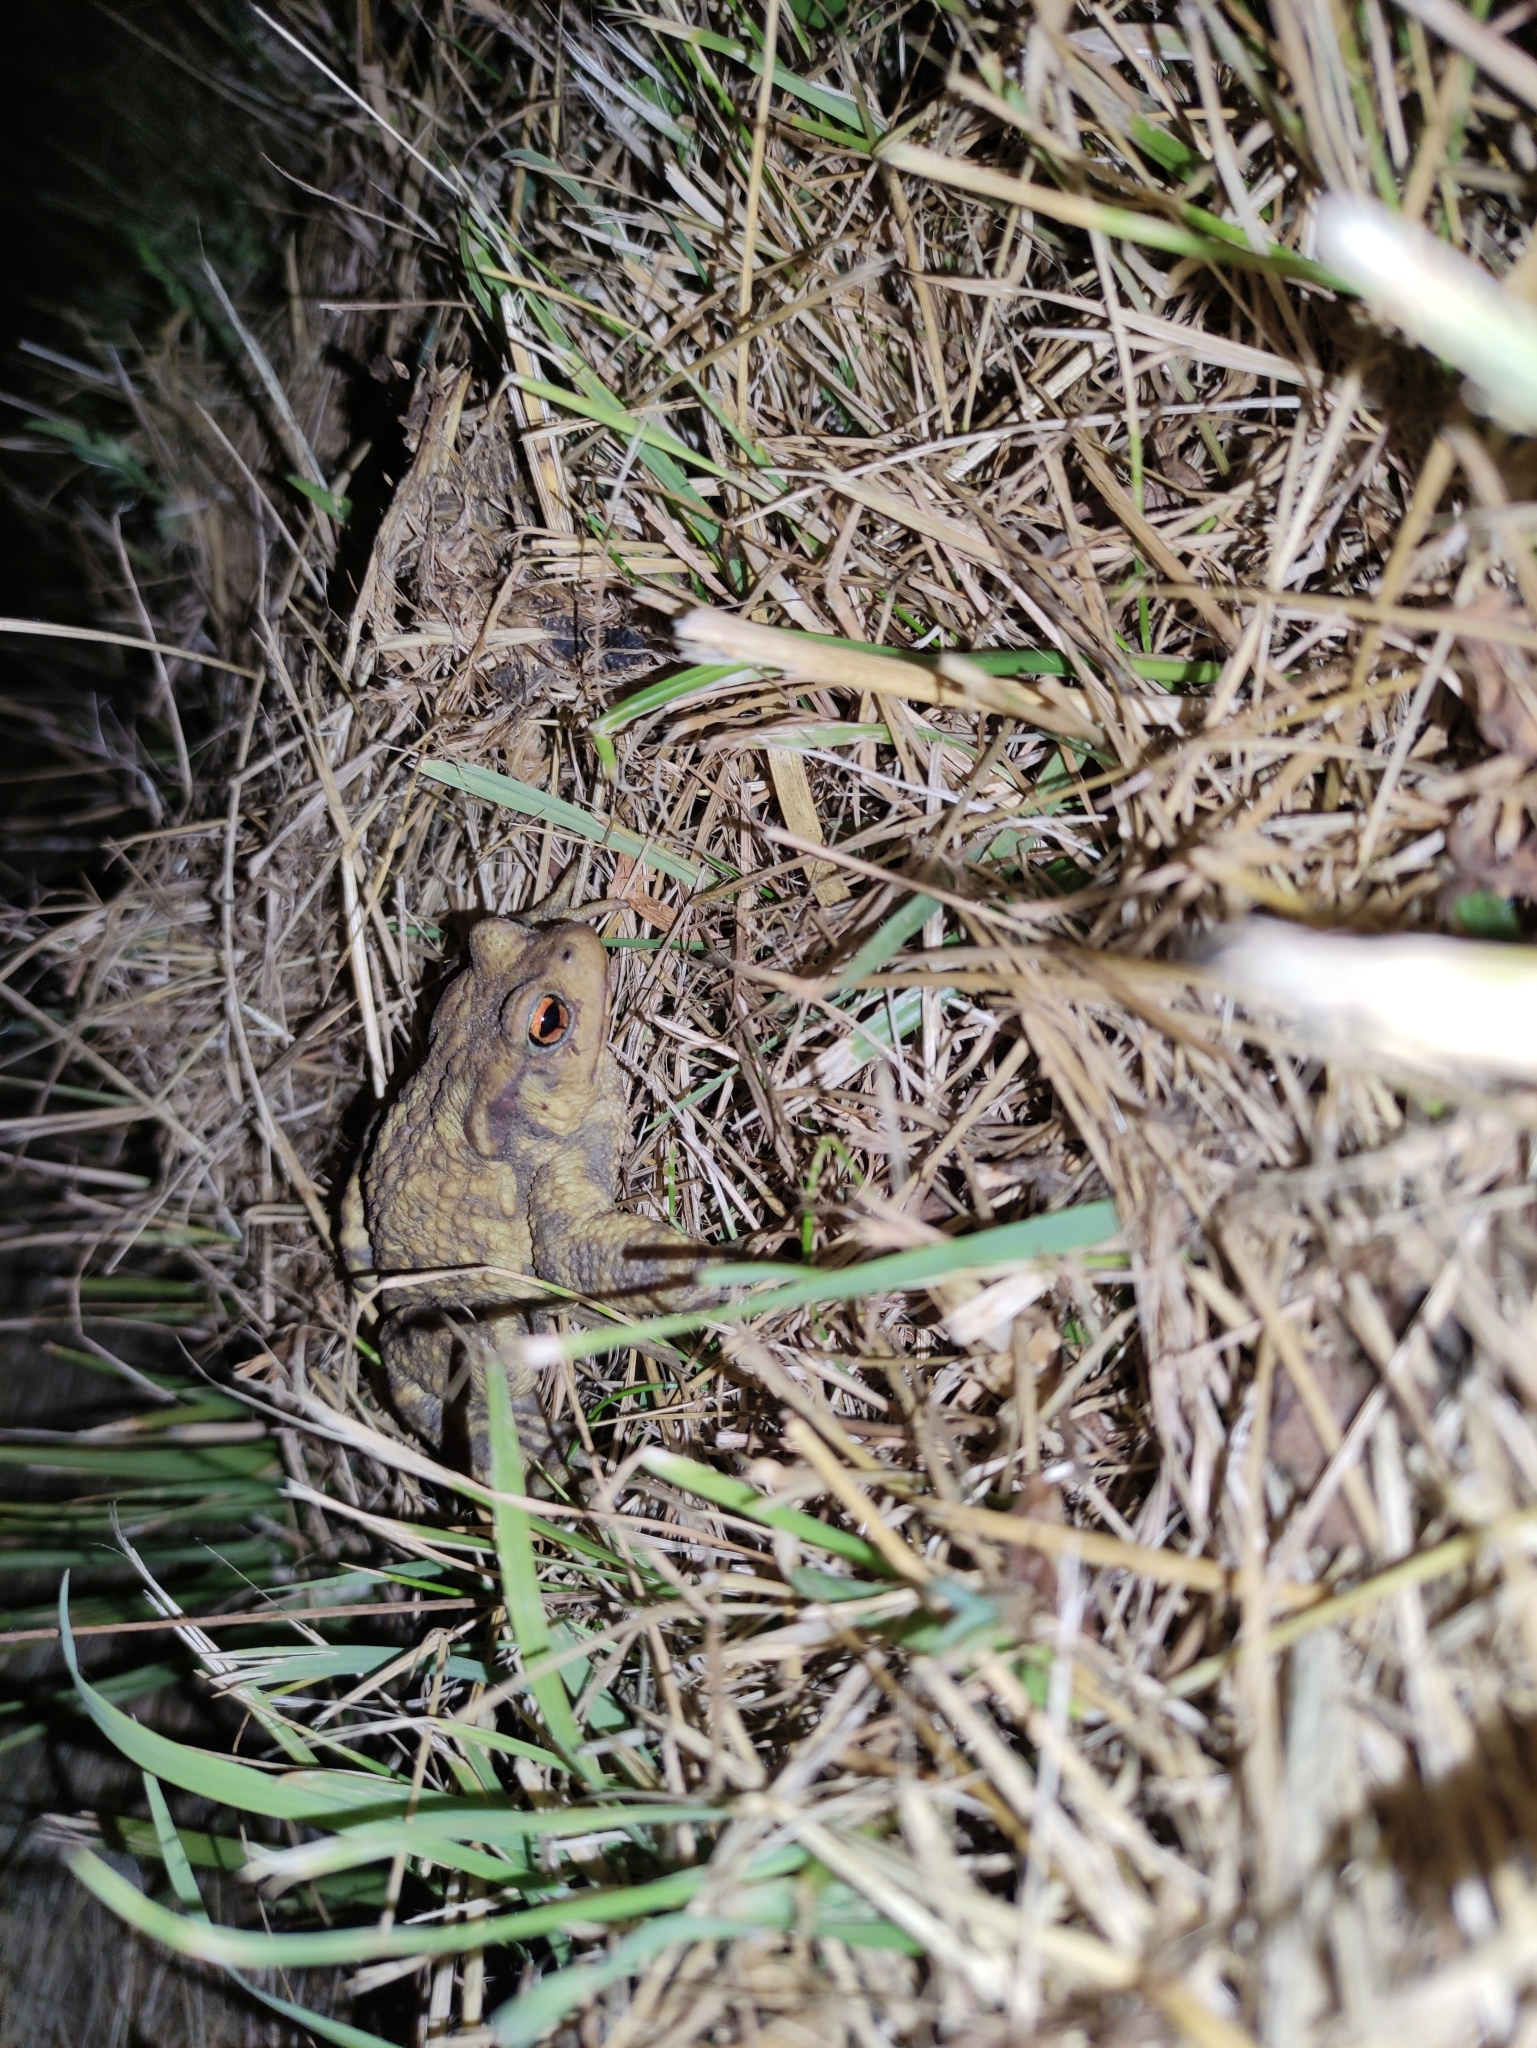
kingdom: Animalia
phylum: Chordata
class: Amphibia
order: Anura
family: Bufonidae
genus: Bufo
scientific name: Bufo bufo
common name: Common toad
